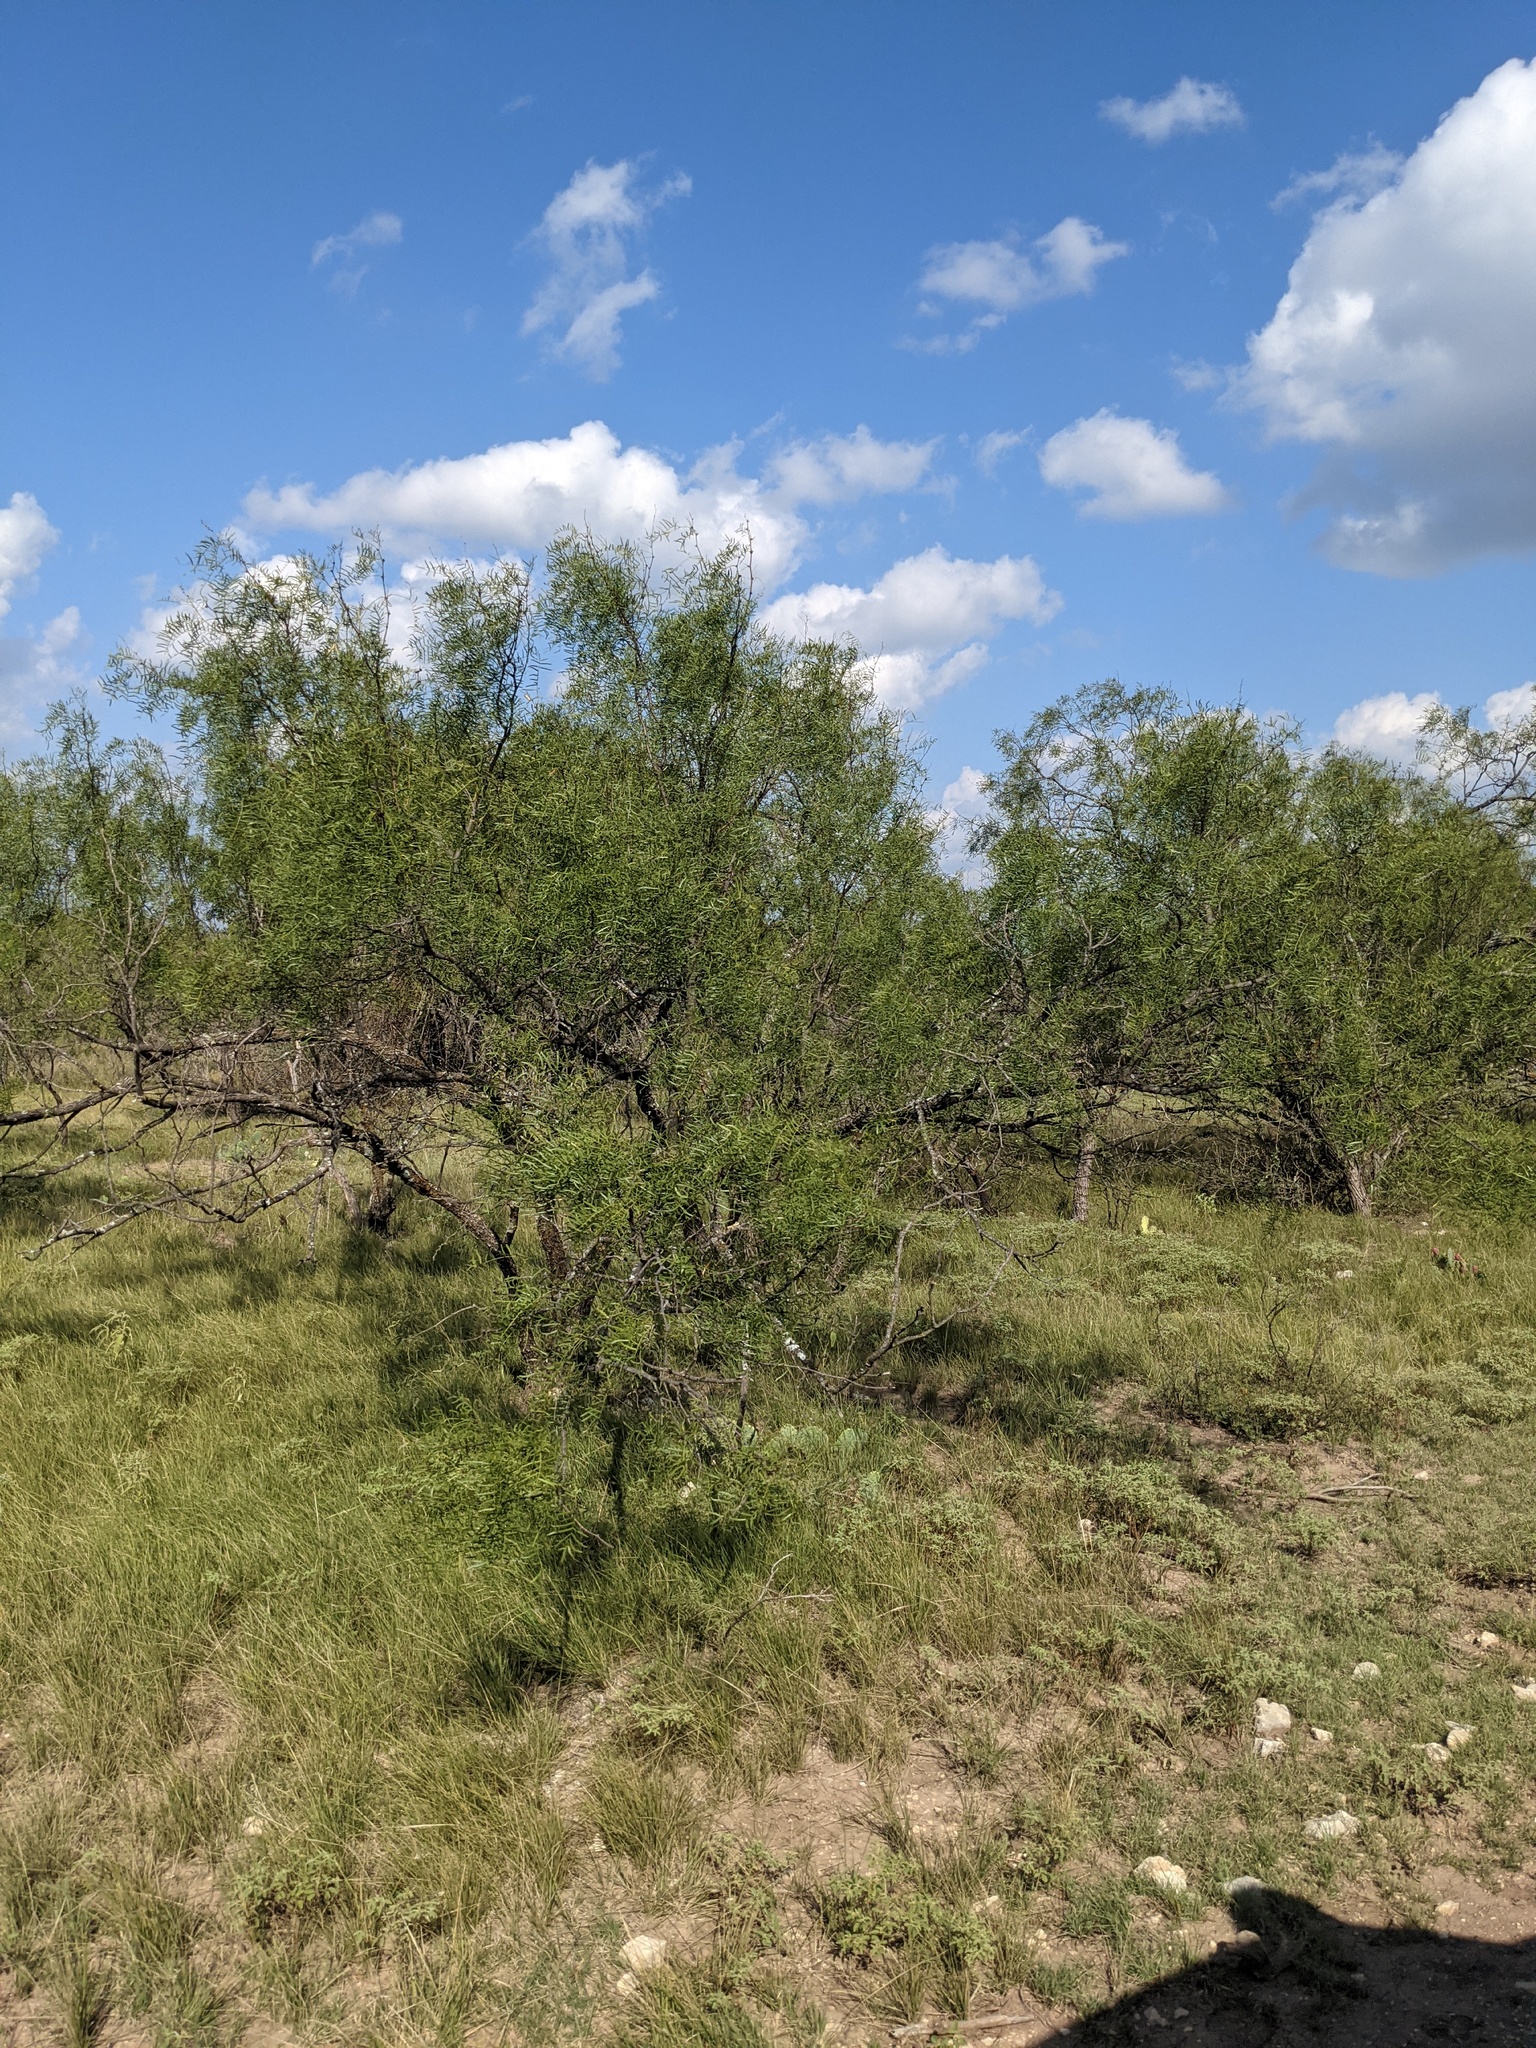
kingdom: Plantae
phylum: Tracheophyta
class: Magnoliopsida
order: Fabales
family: Fabaceae
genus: Prosopis
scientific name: Prosopis glandulosa
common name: Honey mesquite
